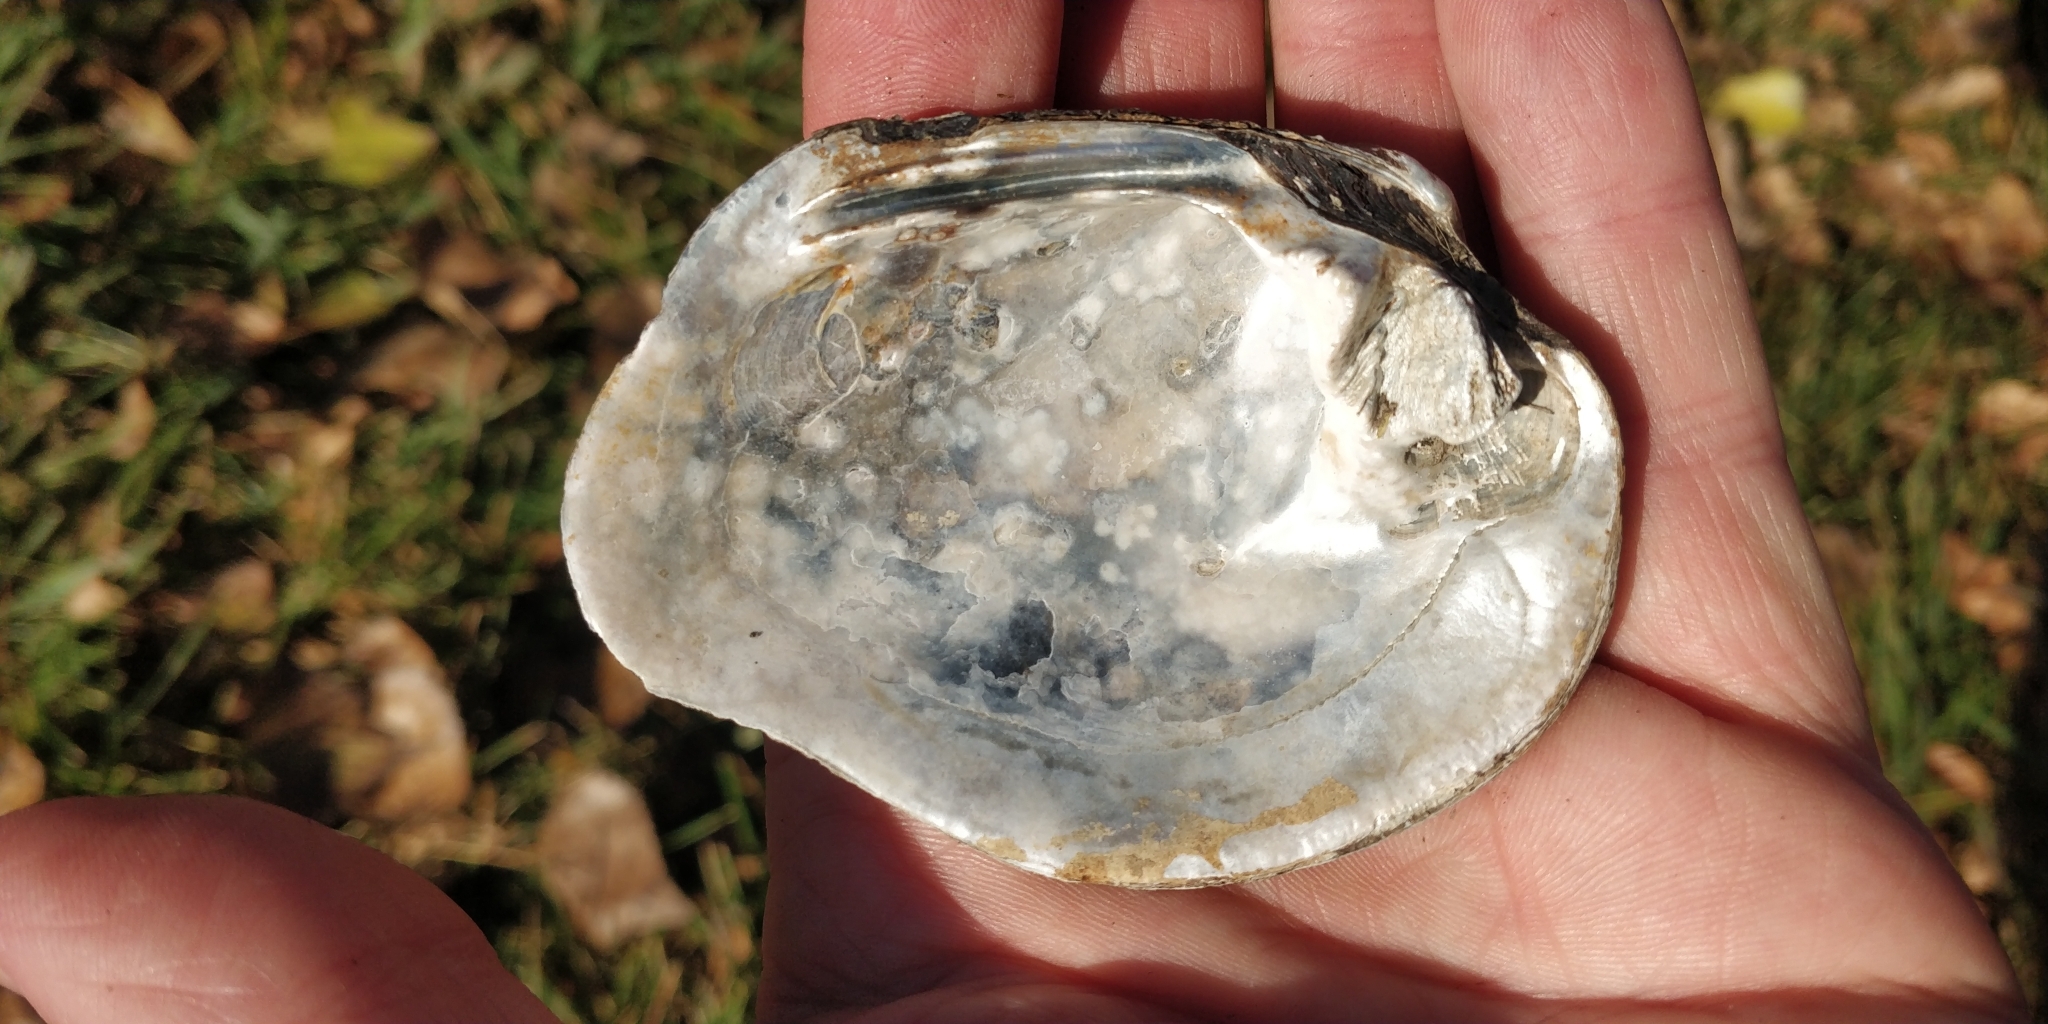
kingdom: Animalia
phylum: Mollusca
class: Bivalvia
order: Unionida
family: Unionidae
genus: Quadrula
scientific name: Quadrula quadrula
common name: Mapleleaf
